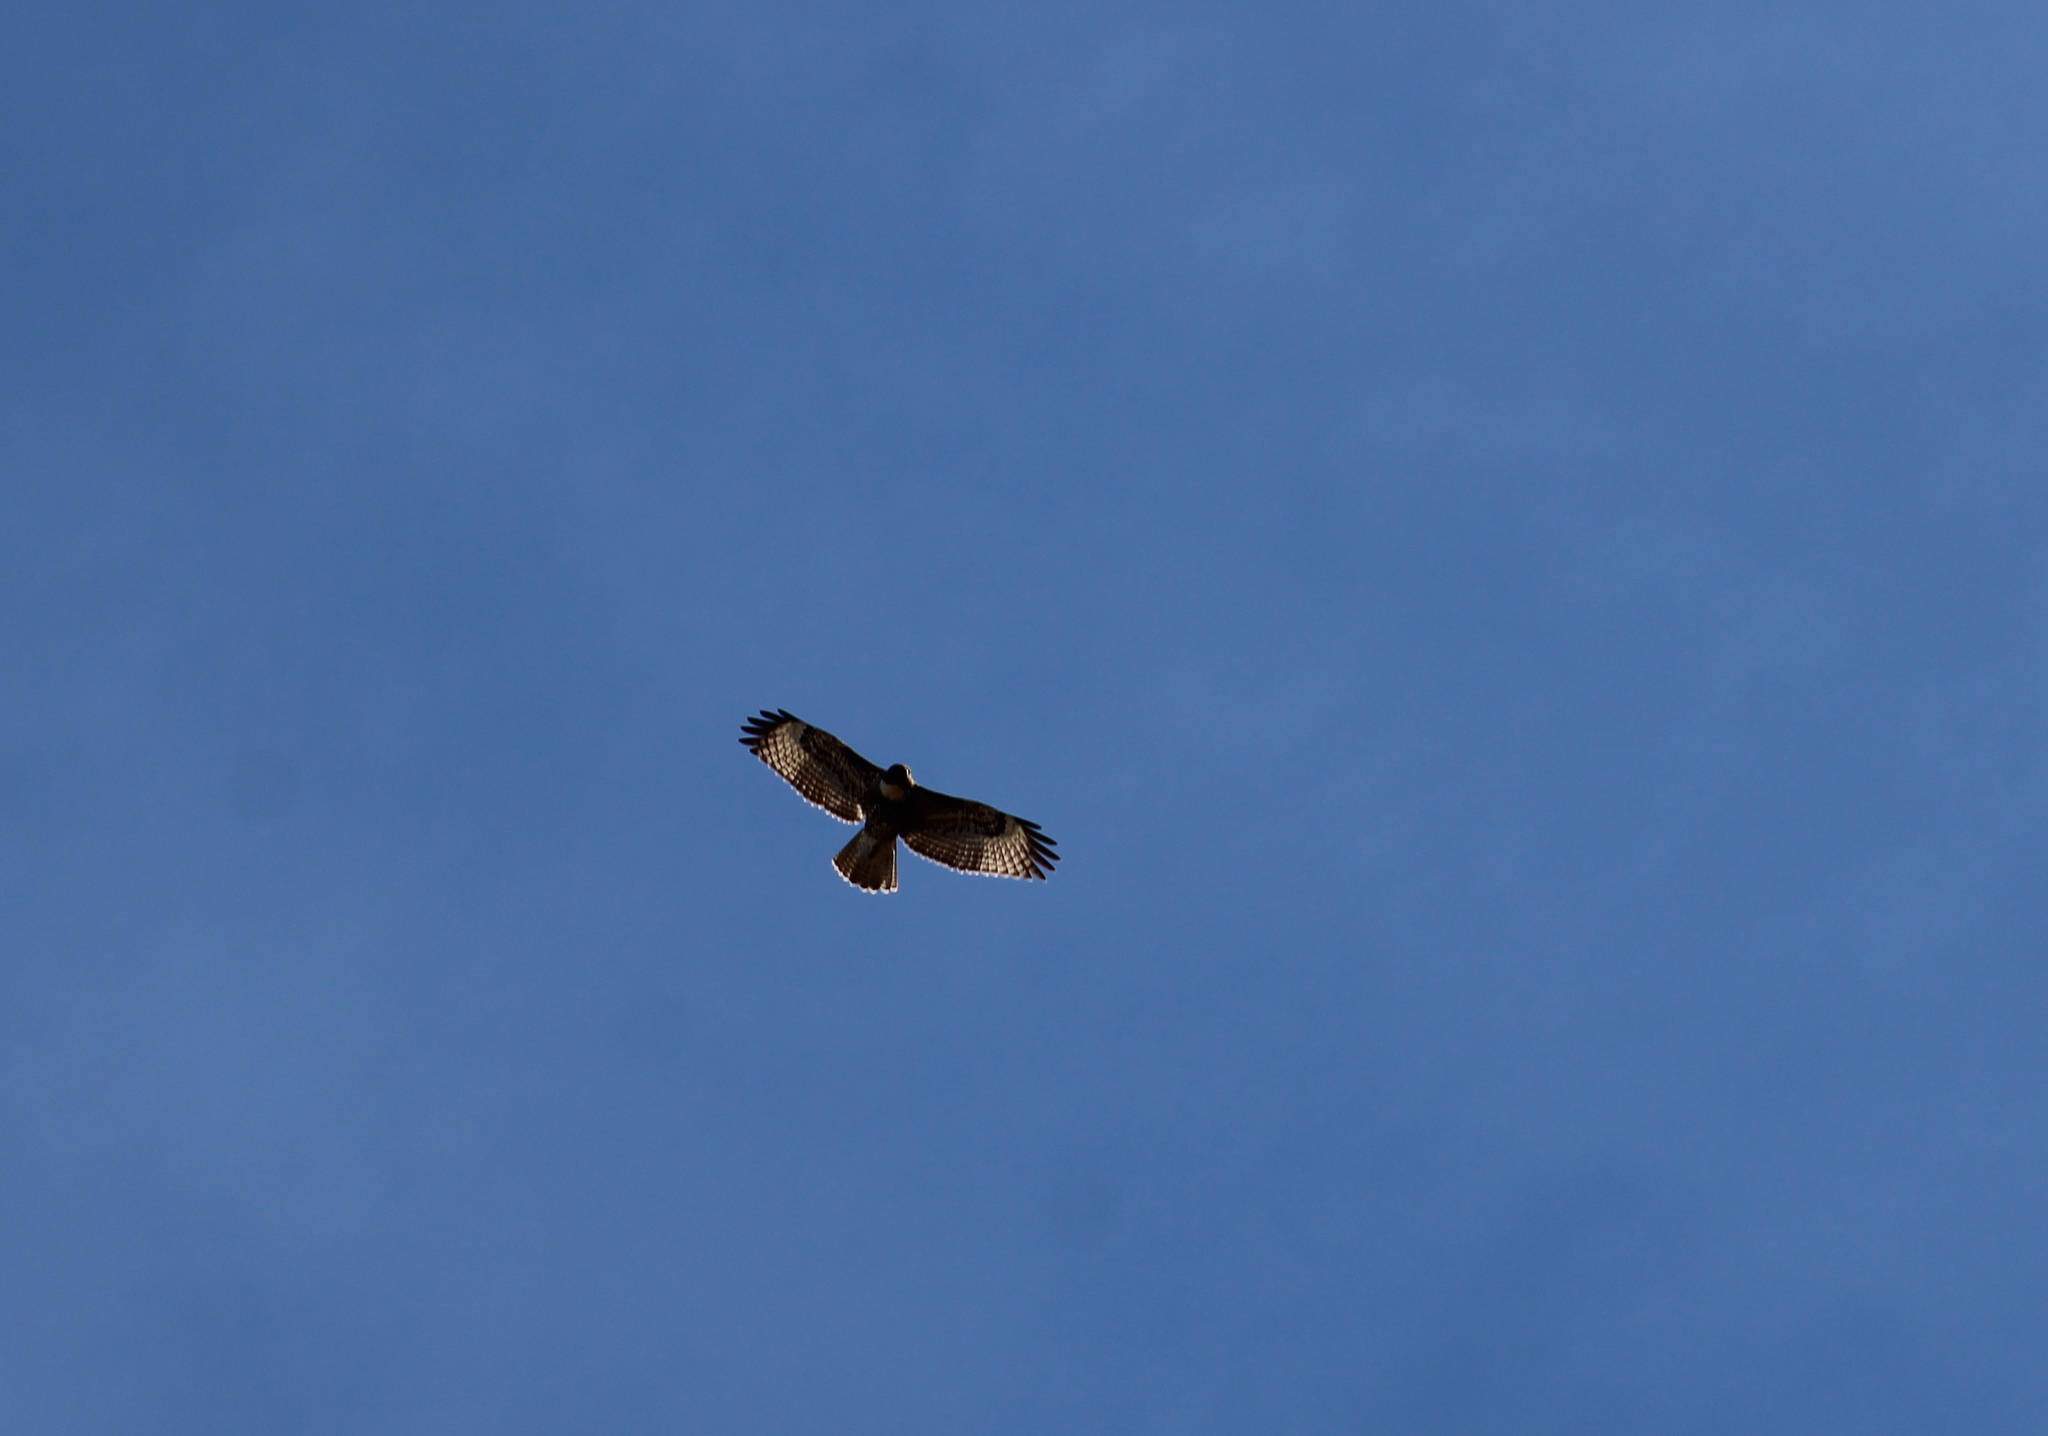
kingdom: Animalia
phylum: Chordata
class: Aves
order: Accipitriformes
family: Accipitridae
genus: Buteo
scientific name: Buteo jamaicensis
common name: Red-tailed hawk
